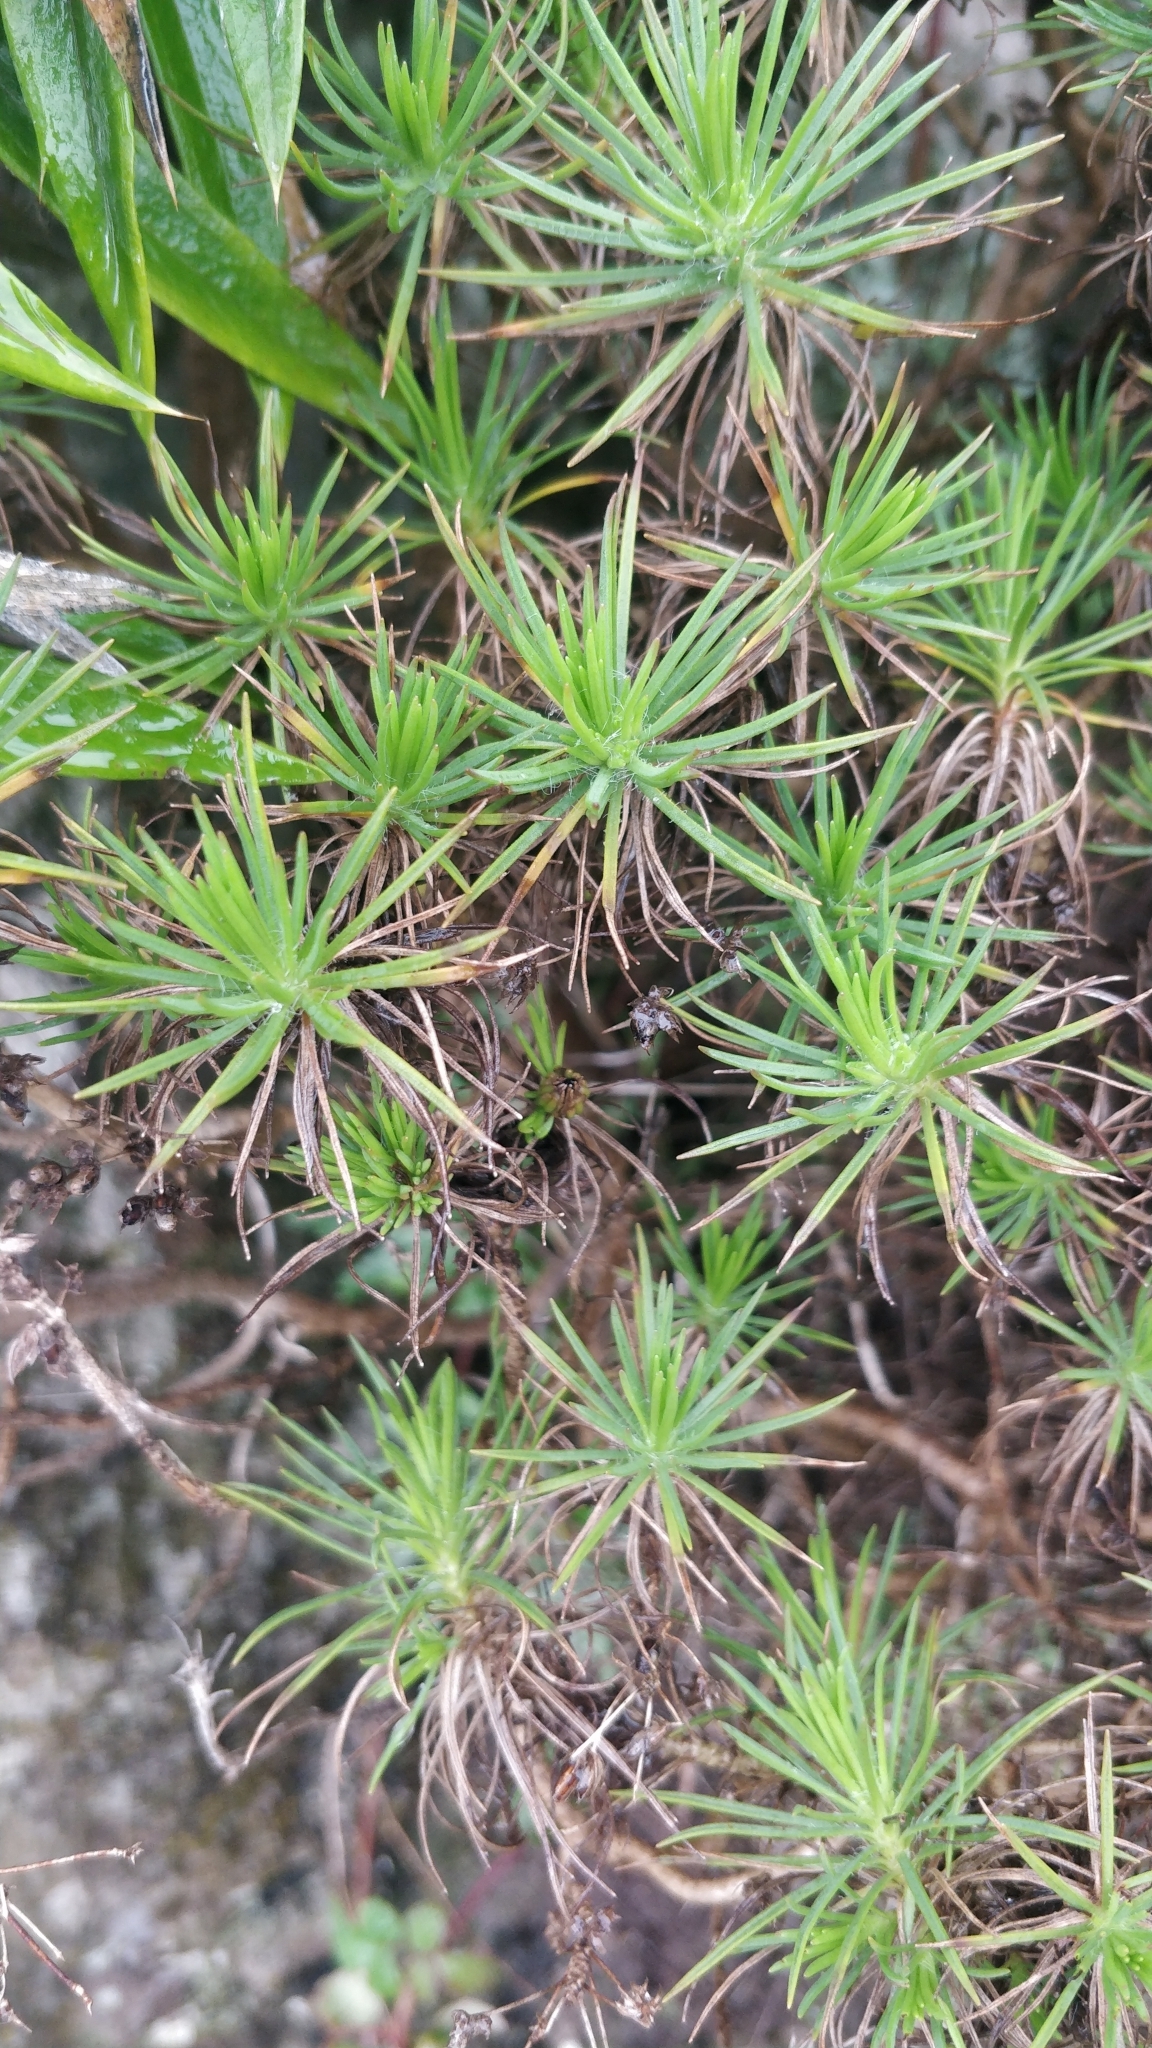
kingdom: Plantae
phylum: Tracheophyta
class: Magnoliopsida
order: Lamiales
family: Plantaginaceae
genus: Plantago
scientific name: Plantago arborescens
